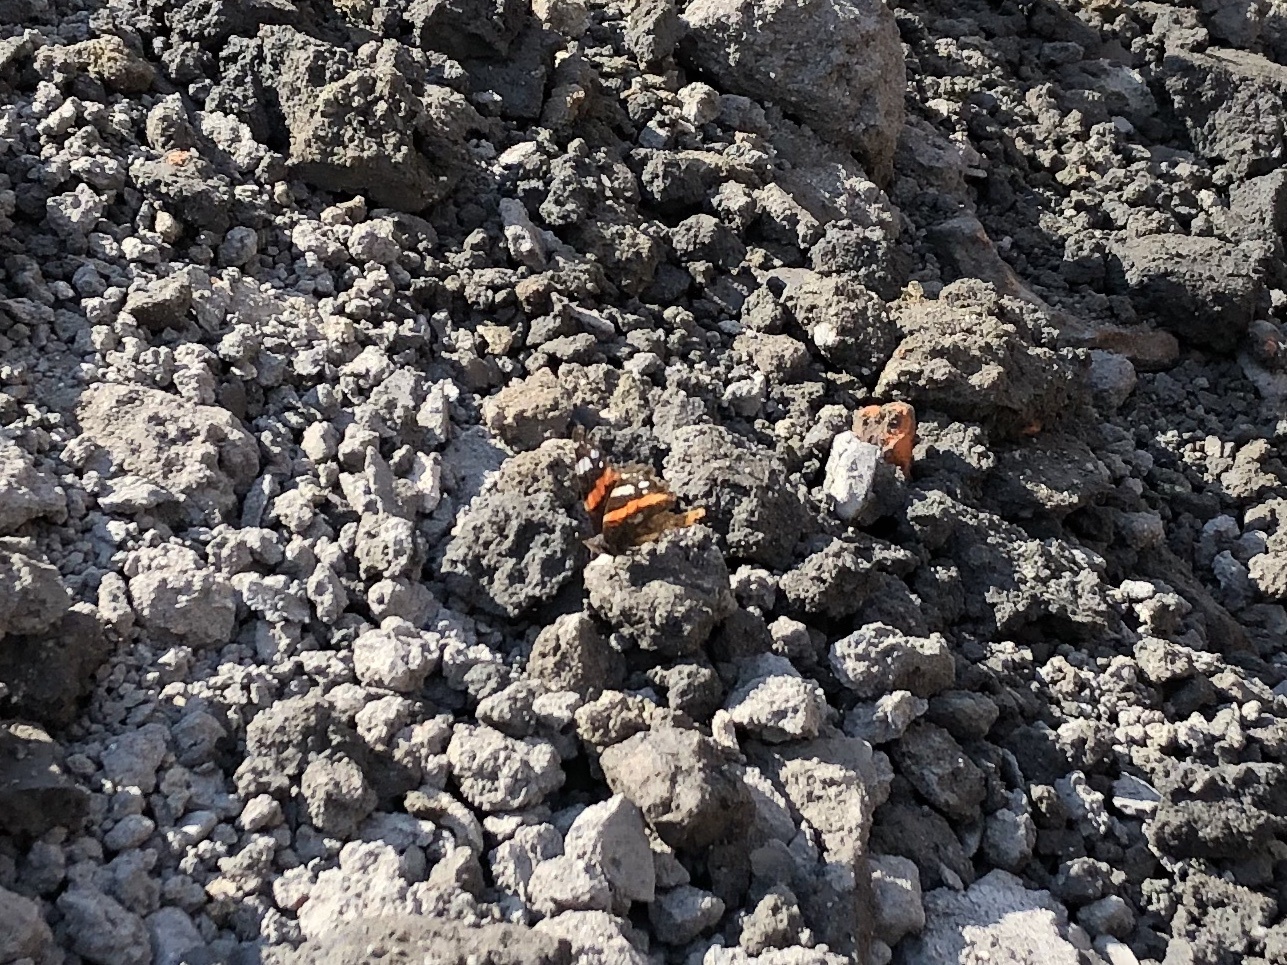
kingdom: Animalia
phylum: Arthropoda
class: Insecta
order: Lepidoptera
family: Nymphalidae
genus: Vanessa
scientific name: Vanessa atalanta
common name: Red admiral
